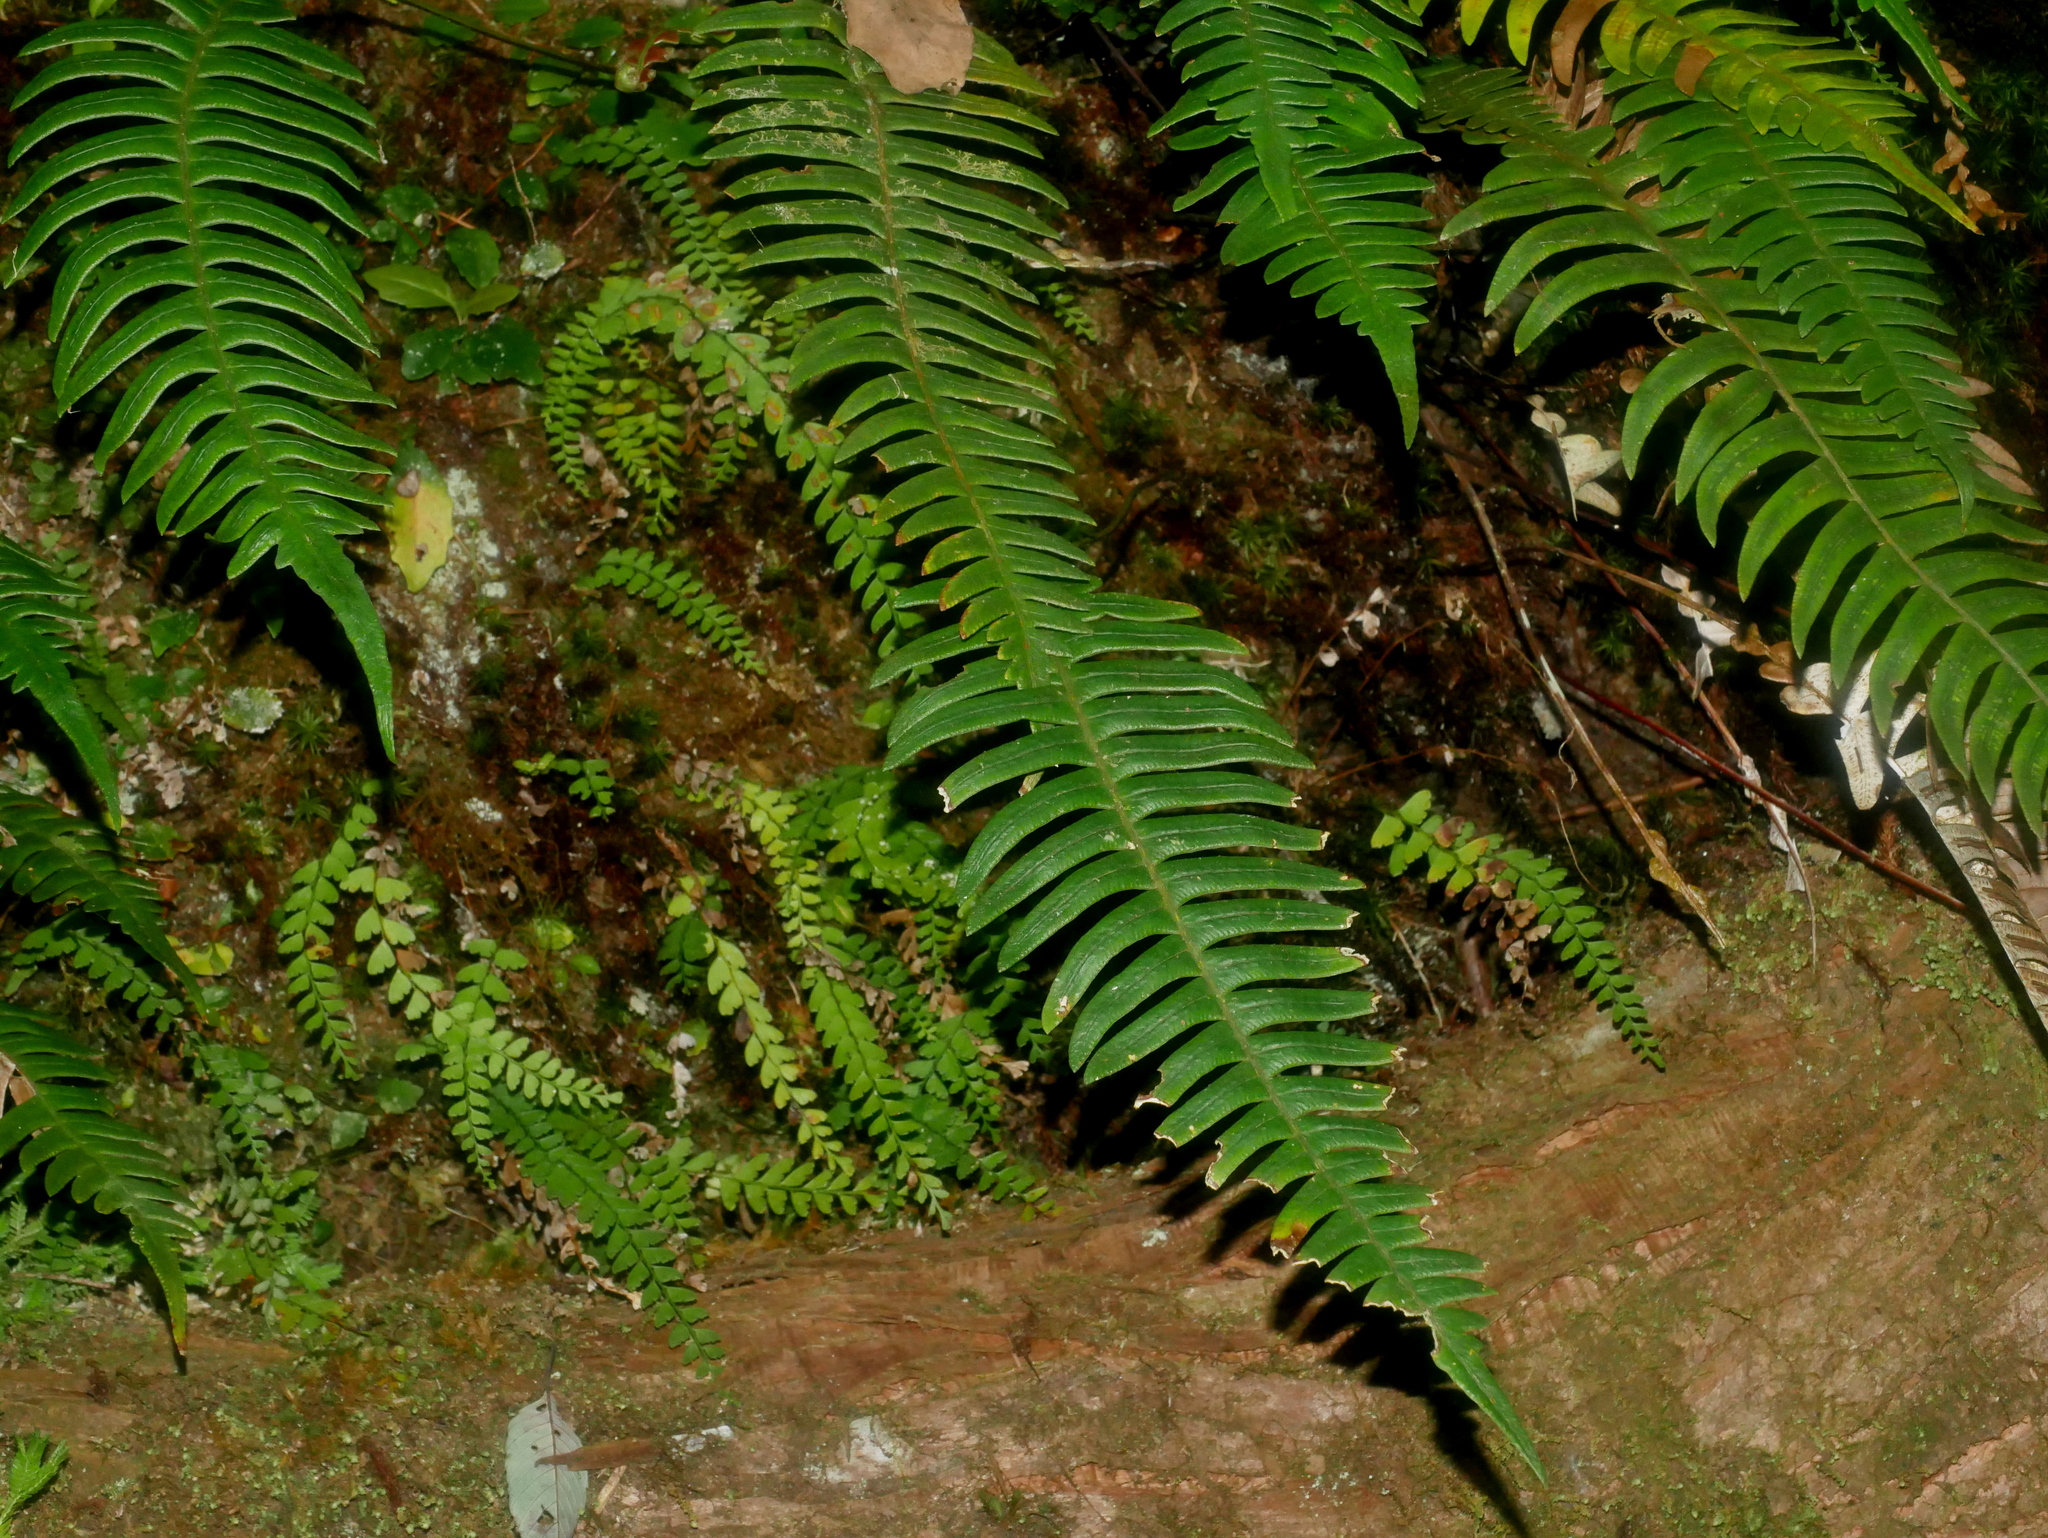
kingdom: Plantae
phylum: Tracheophyta
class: Polypodiopsida
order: Polypodiales
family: Blechnaceae
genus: Blechnidium
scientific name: Blechnidium melanopus
